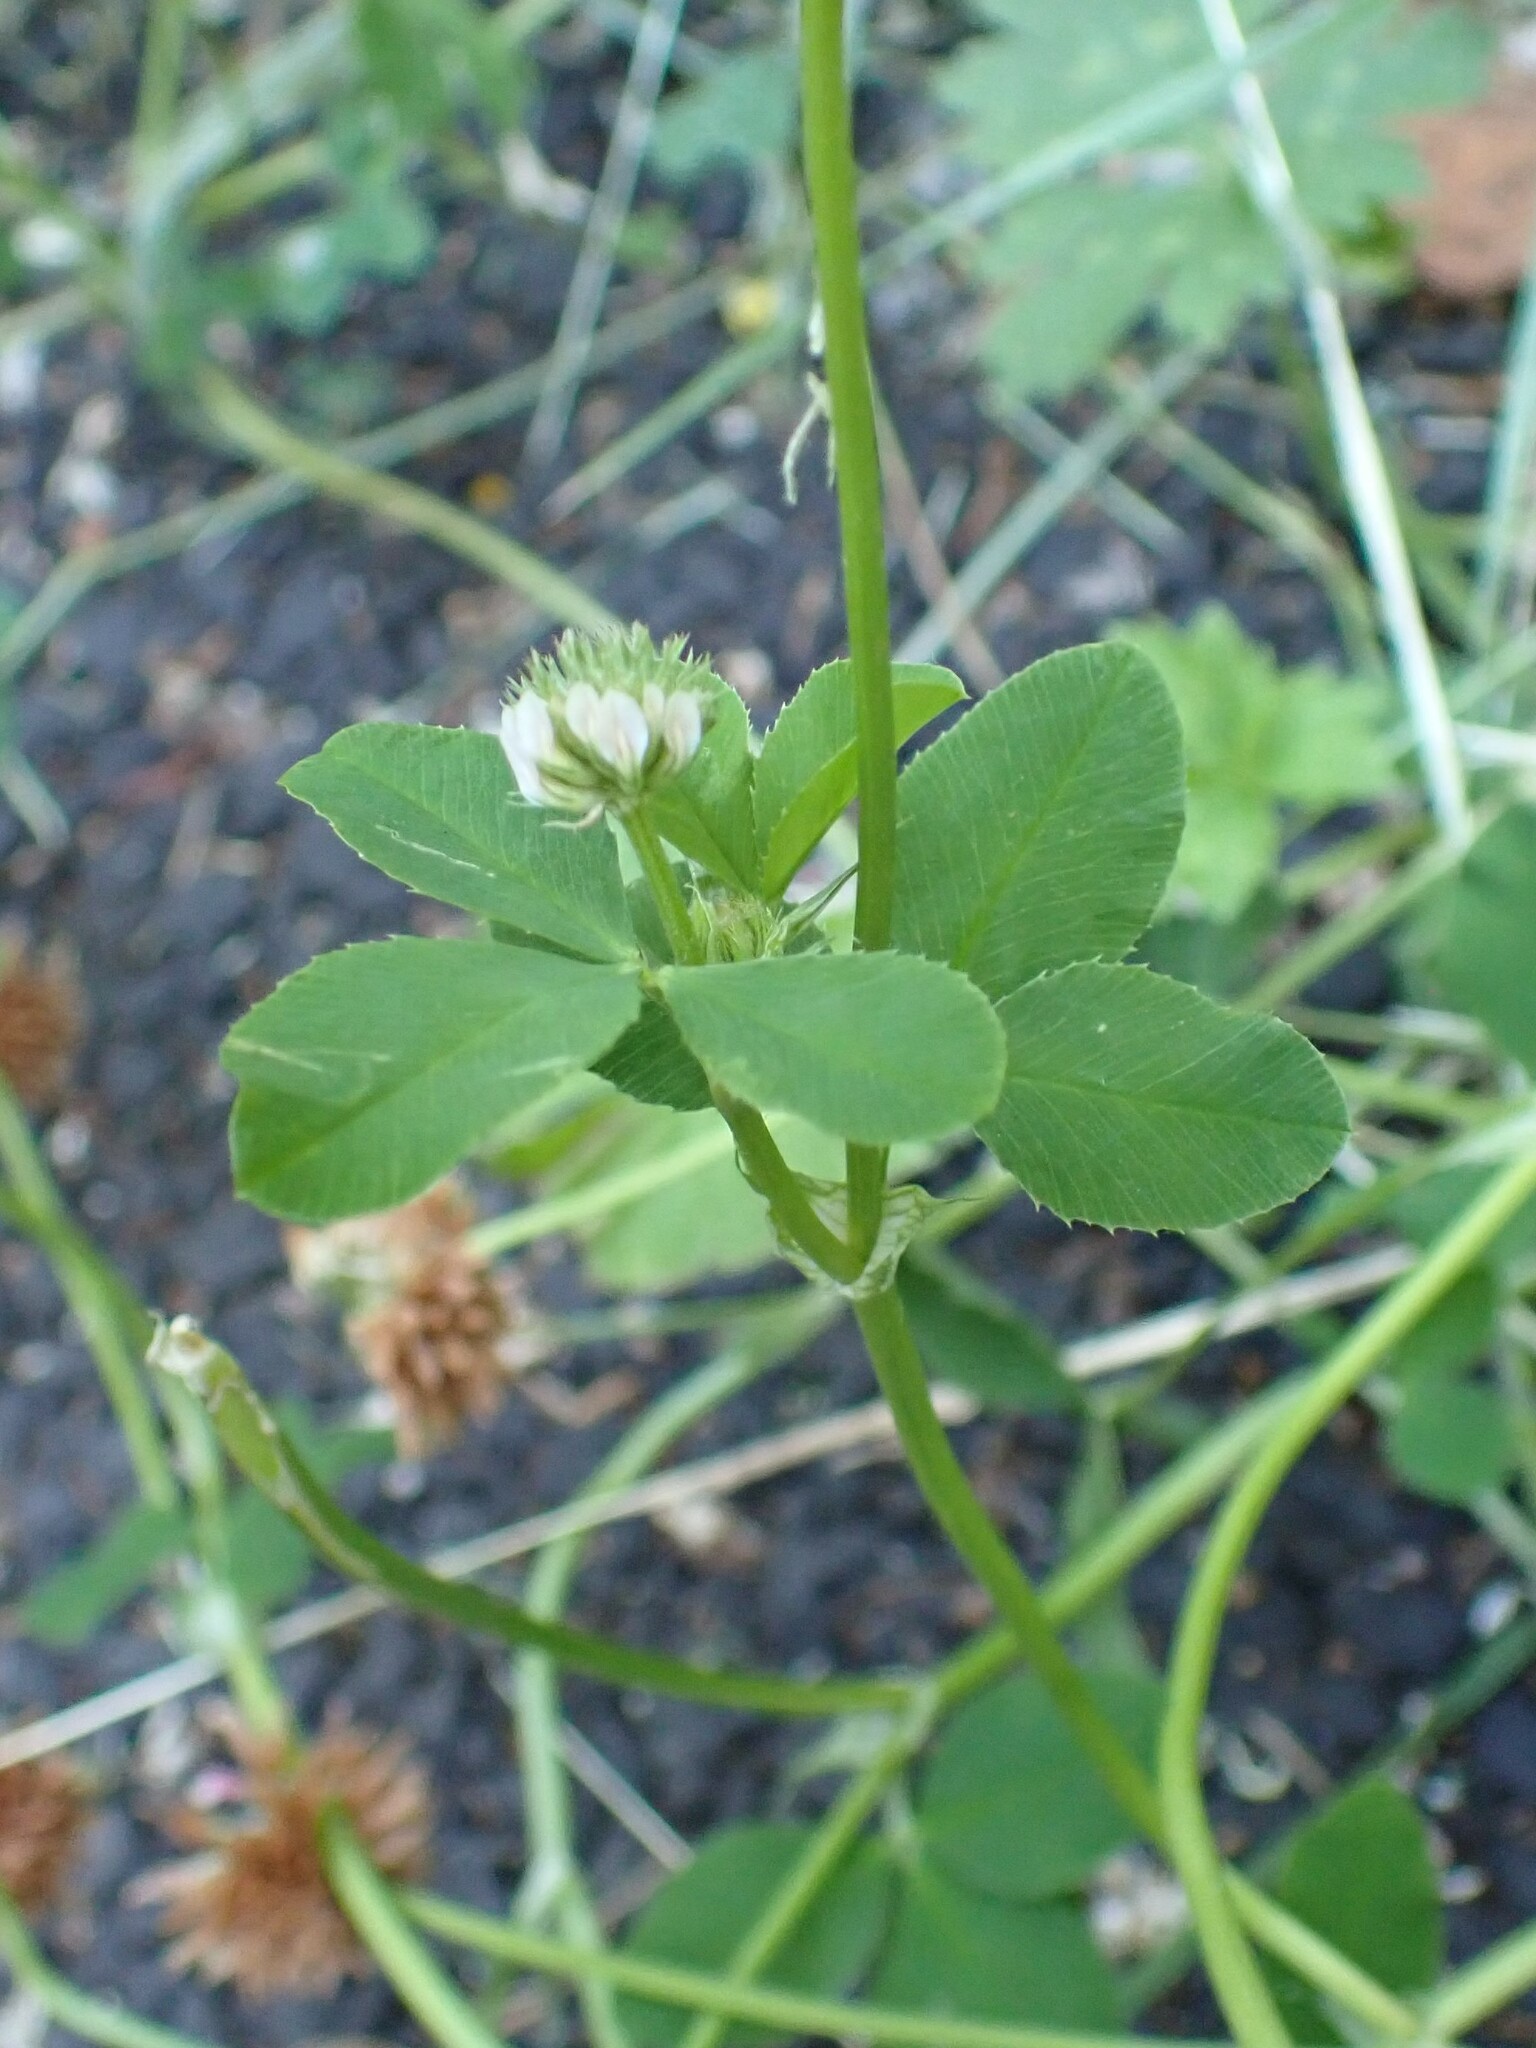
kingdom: Plantae
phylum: Tracheophyta
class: Magnoliopsida
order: Fabales
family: Fabaceae
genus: Trifolium
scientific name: Trifolium hybridum
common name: Alsike clover
